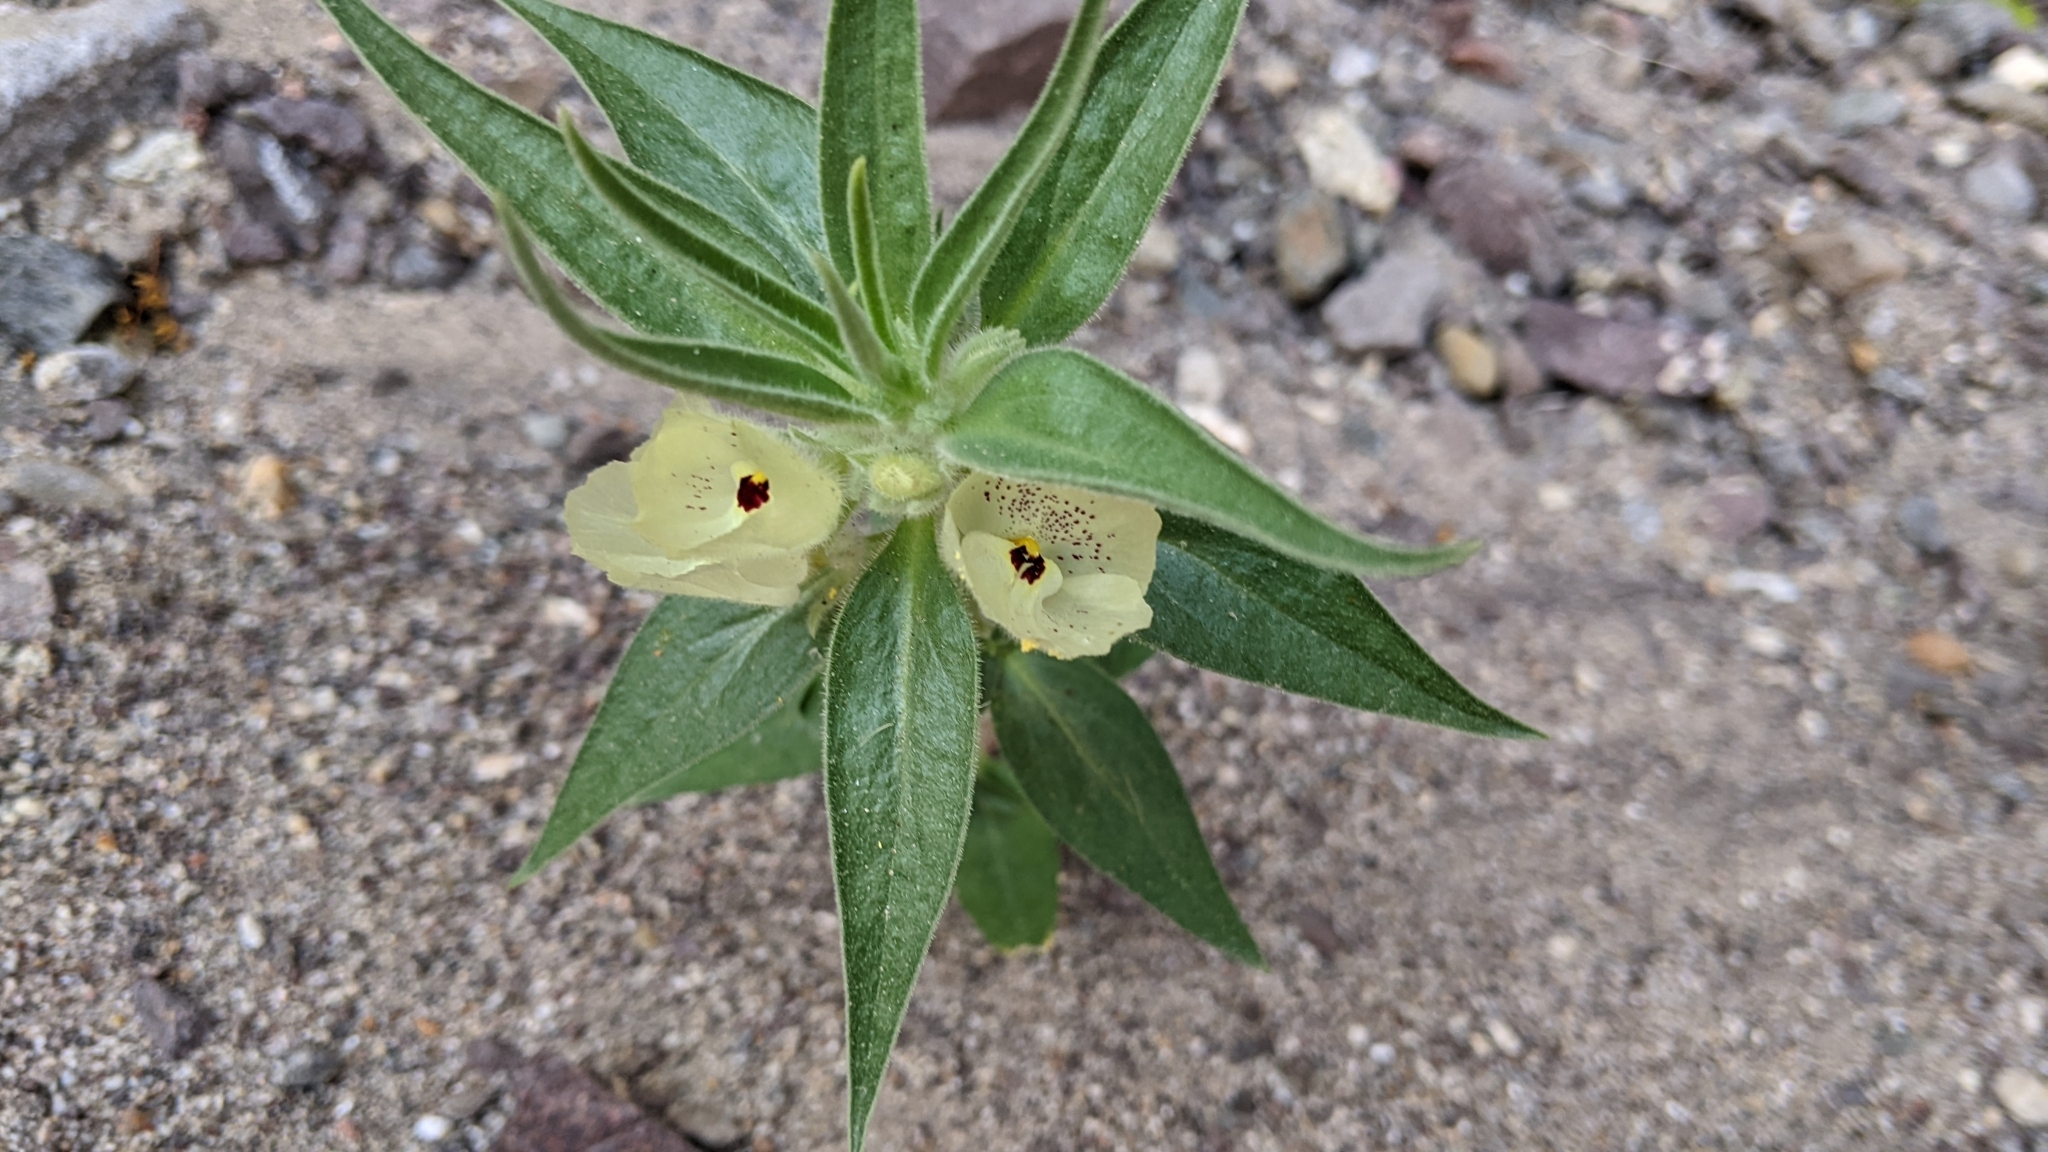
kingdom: Plantae
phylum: Tracheophyta
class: Magnoliopsida
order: Lamiales
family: Plantaginaceae
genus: Mohavea
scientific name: Mohavea confertiflora
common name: Ghost flower
